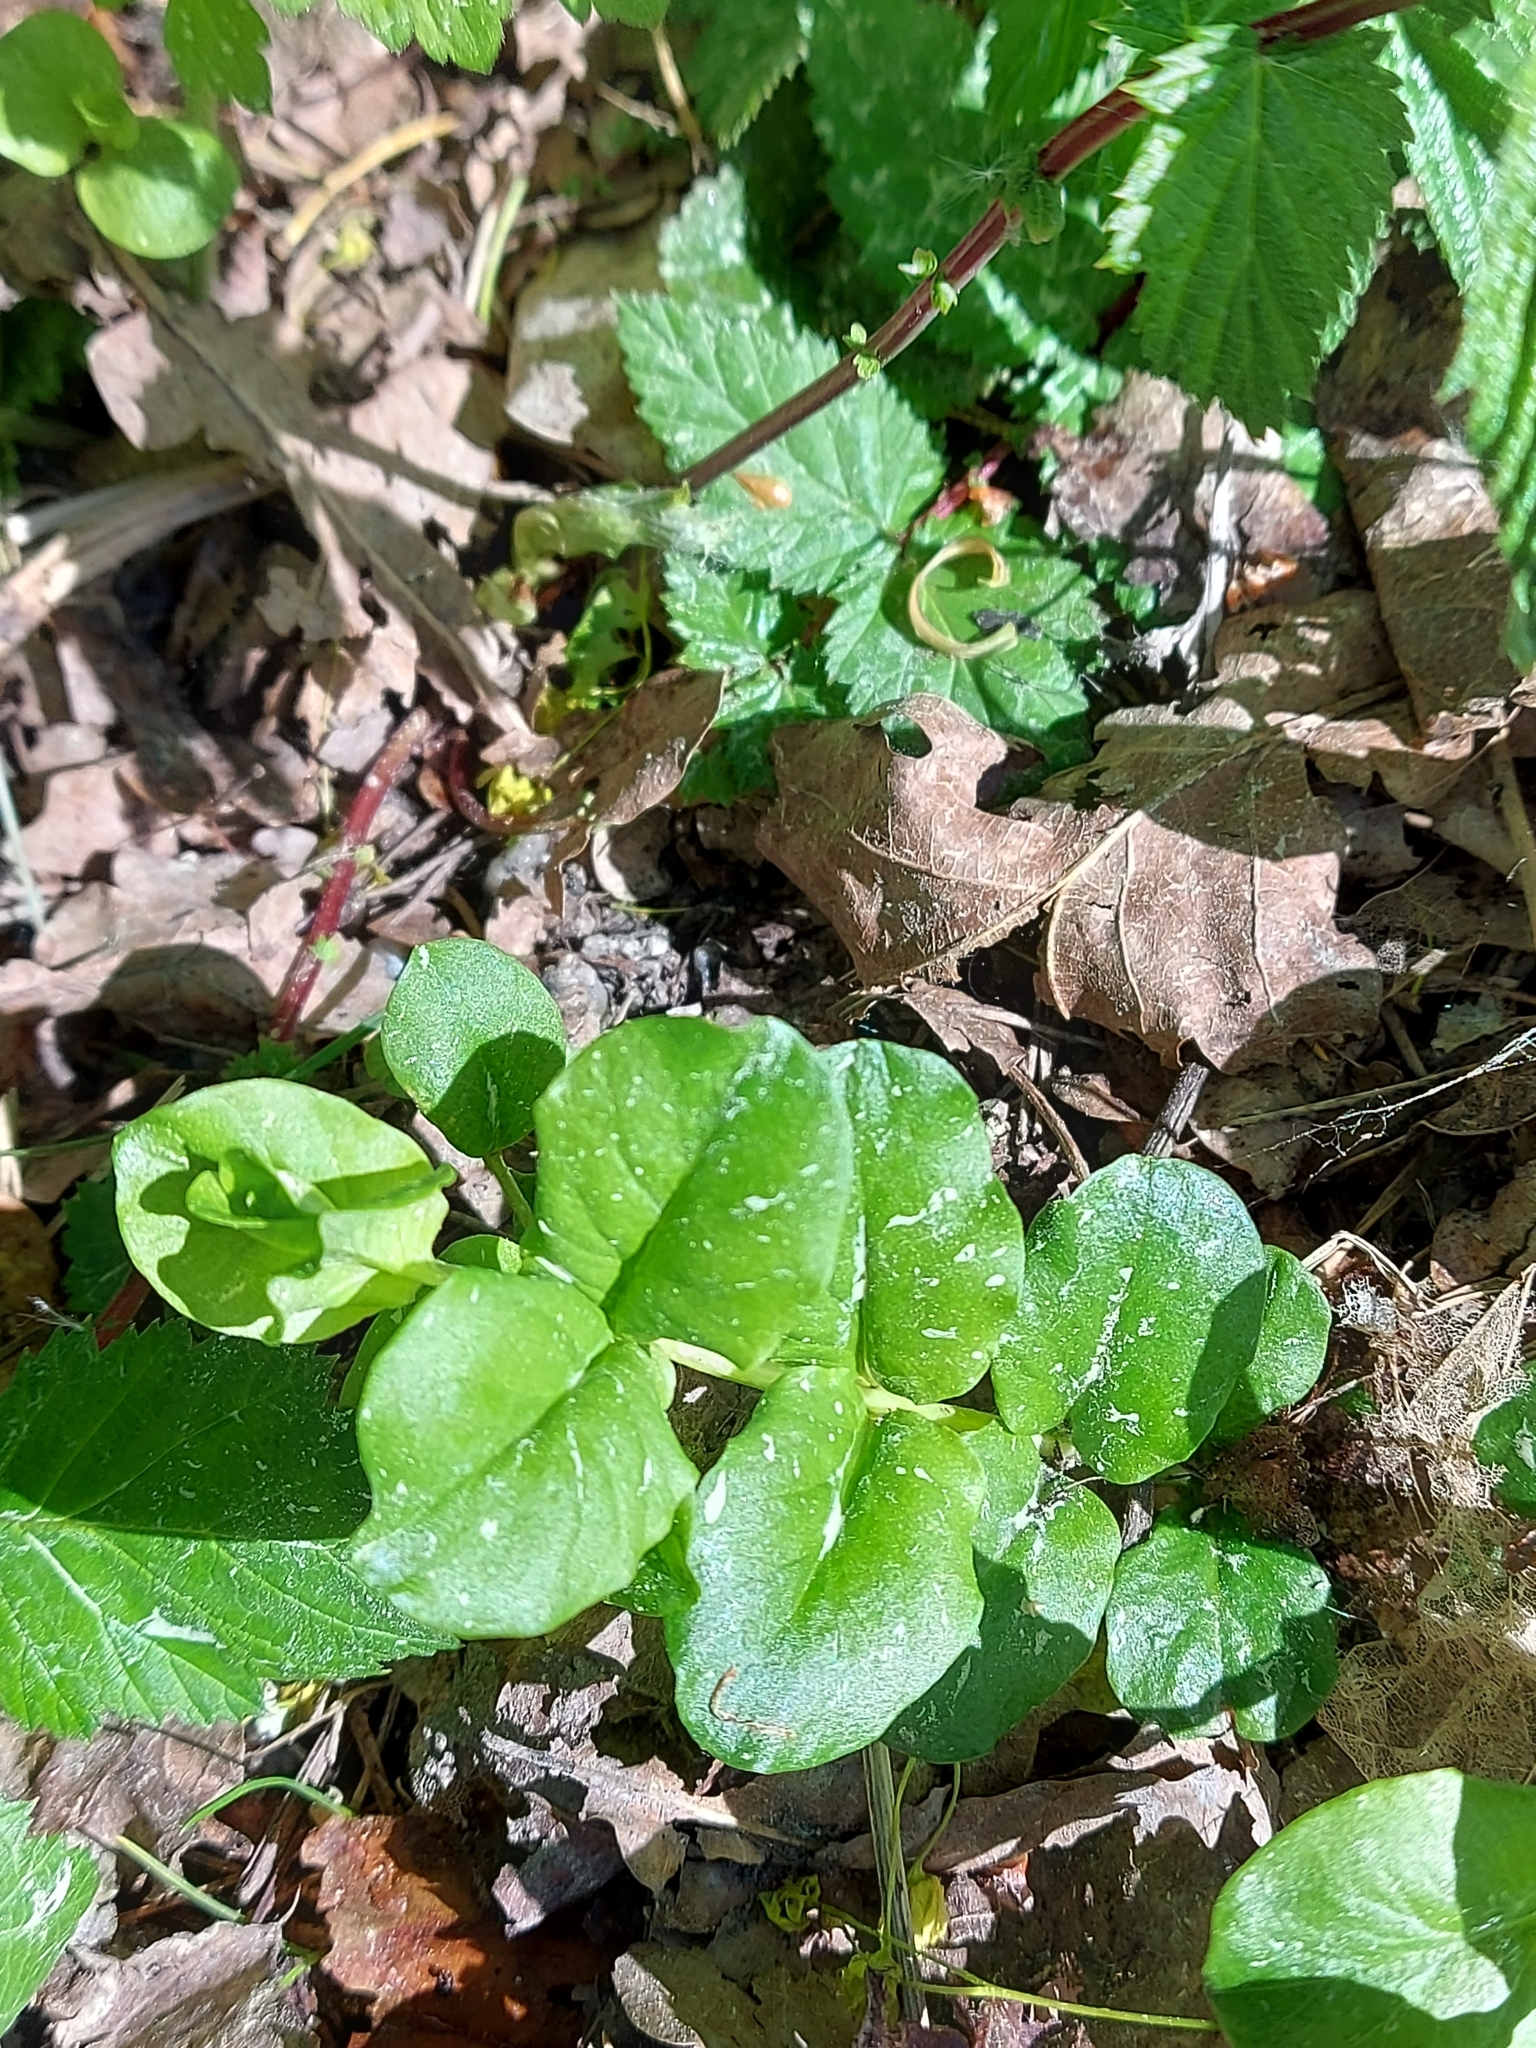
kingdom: Plantae
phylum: Tracheophyta
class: Magnoliopsida
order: Ericales
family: Primulaceae
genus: Lysimachia
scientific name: Lysimachia nummularia
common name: Moneywort
